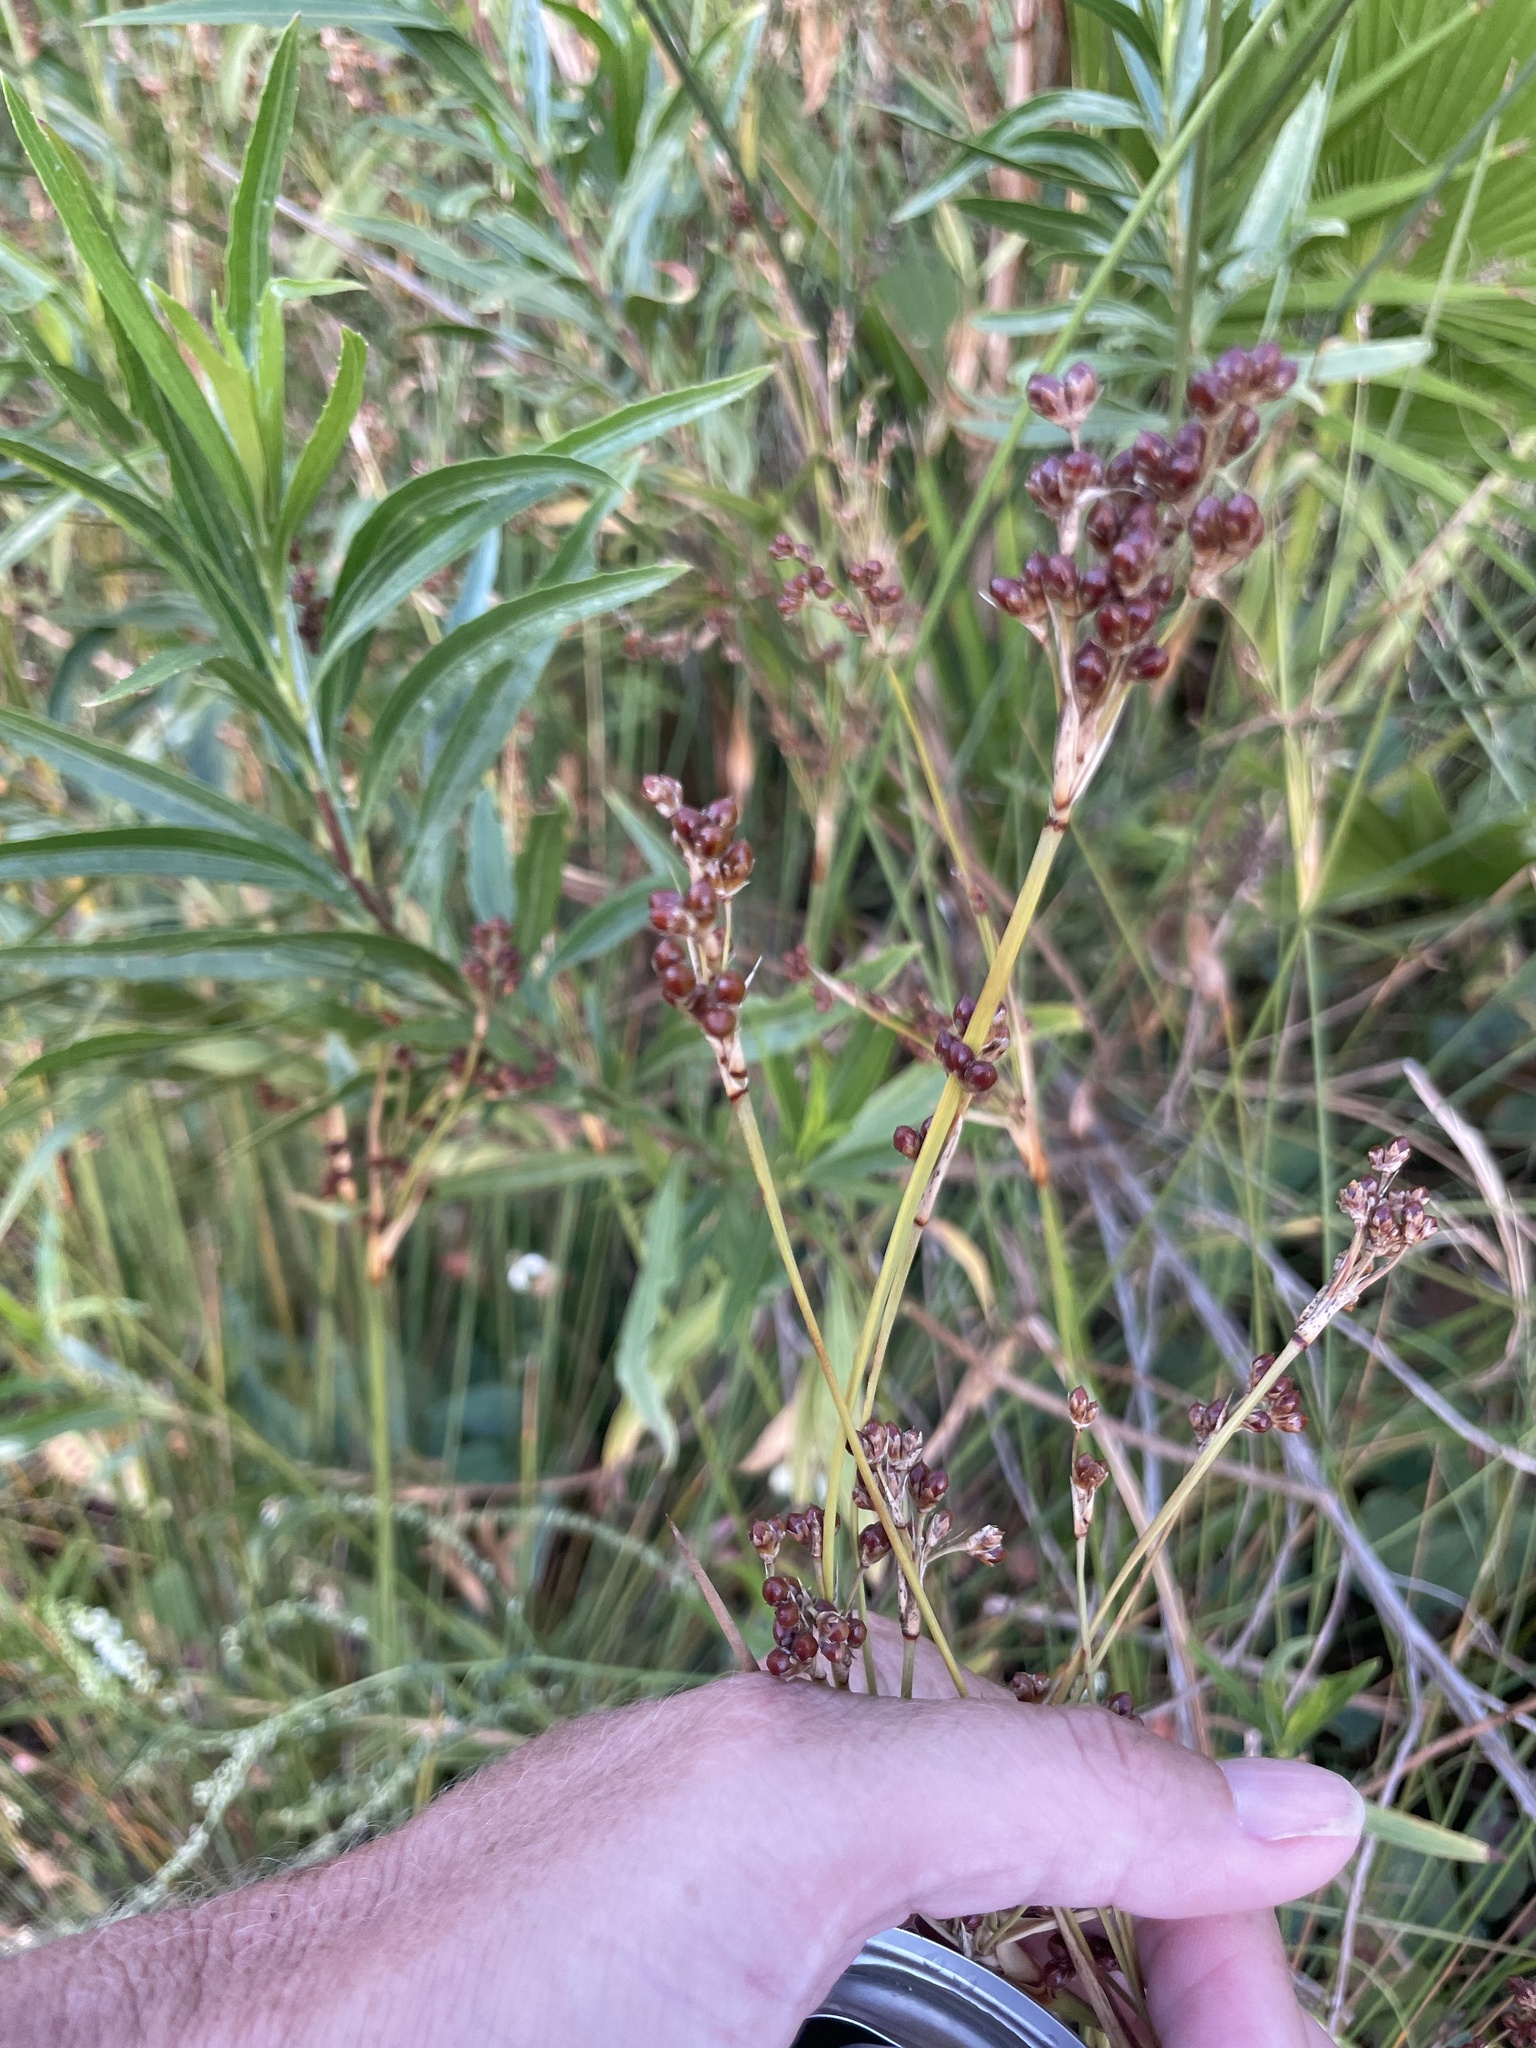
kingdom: Plantae
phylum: Tracheophyta
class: Liliopsida
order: Poales
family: Juncaceae
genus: Juncus
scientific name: Juncus acutus
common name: Sharp rush
